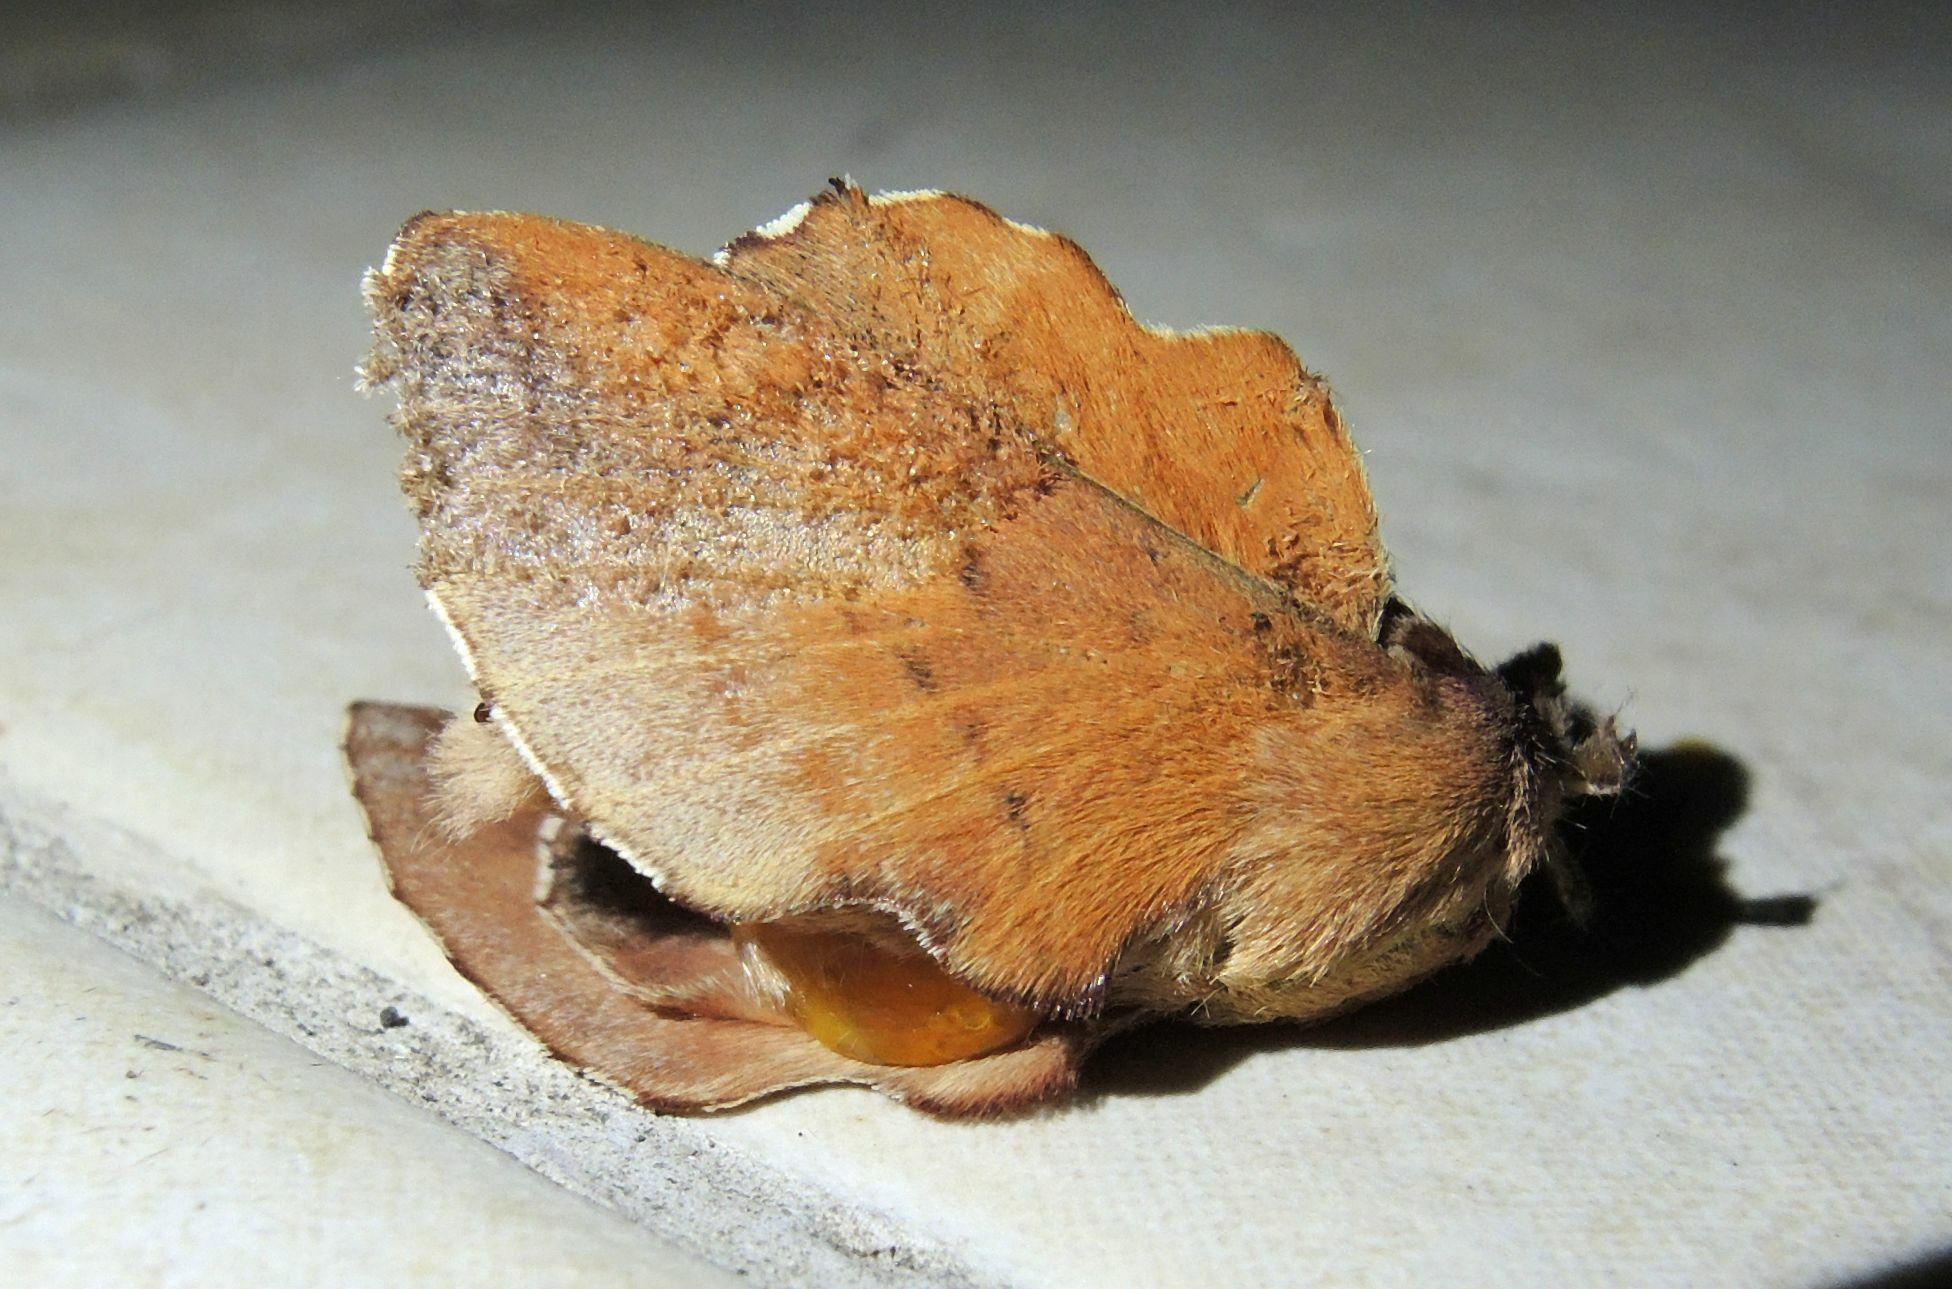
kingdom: Animalia
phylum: Arthropoda
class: Insecta
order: Lepidoptera
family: Lasiocampidae
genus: Phyllodesma
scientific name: Phyllodesma tremulifolia
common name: Aspen lappet
